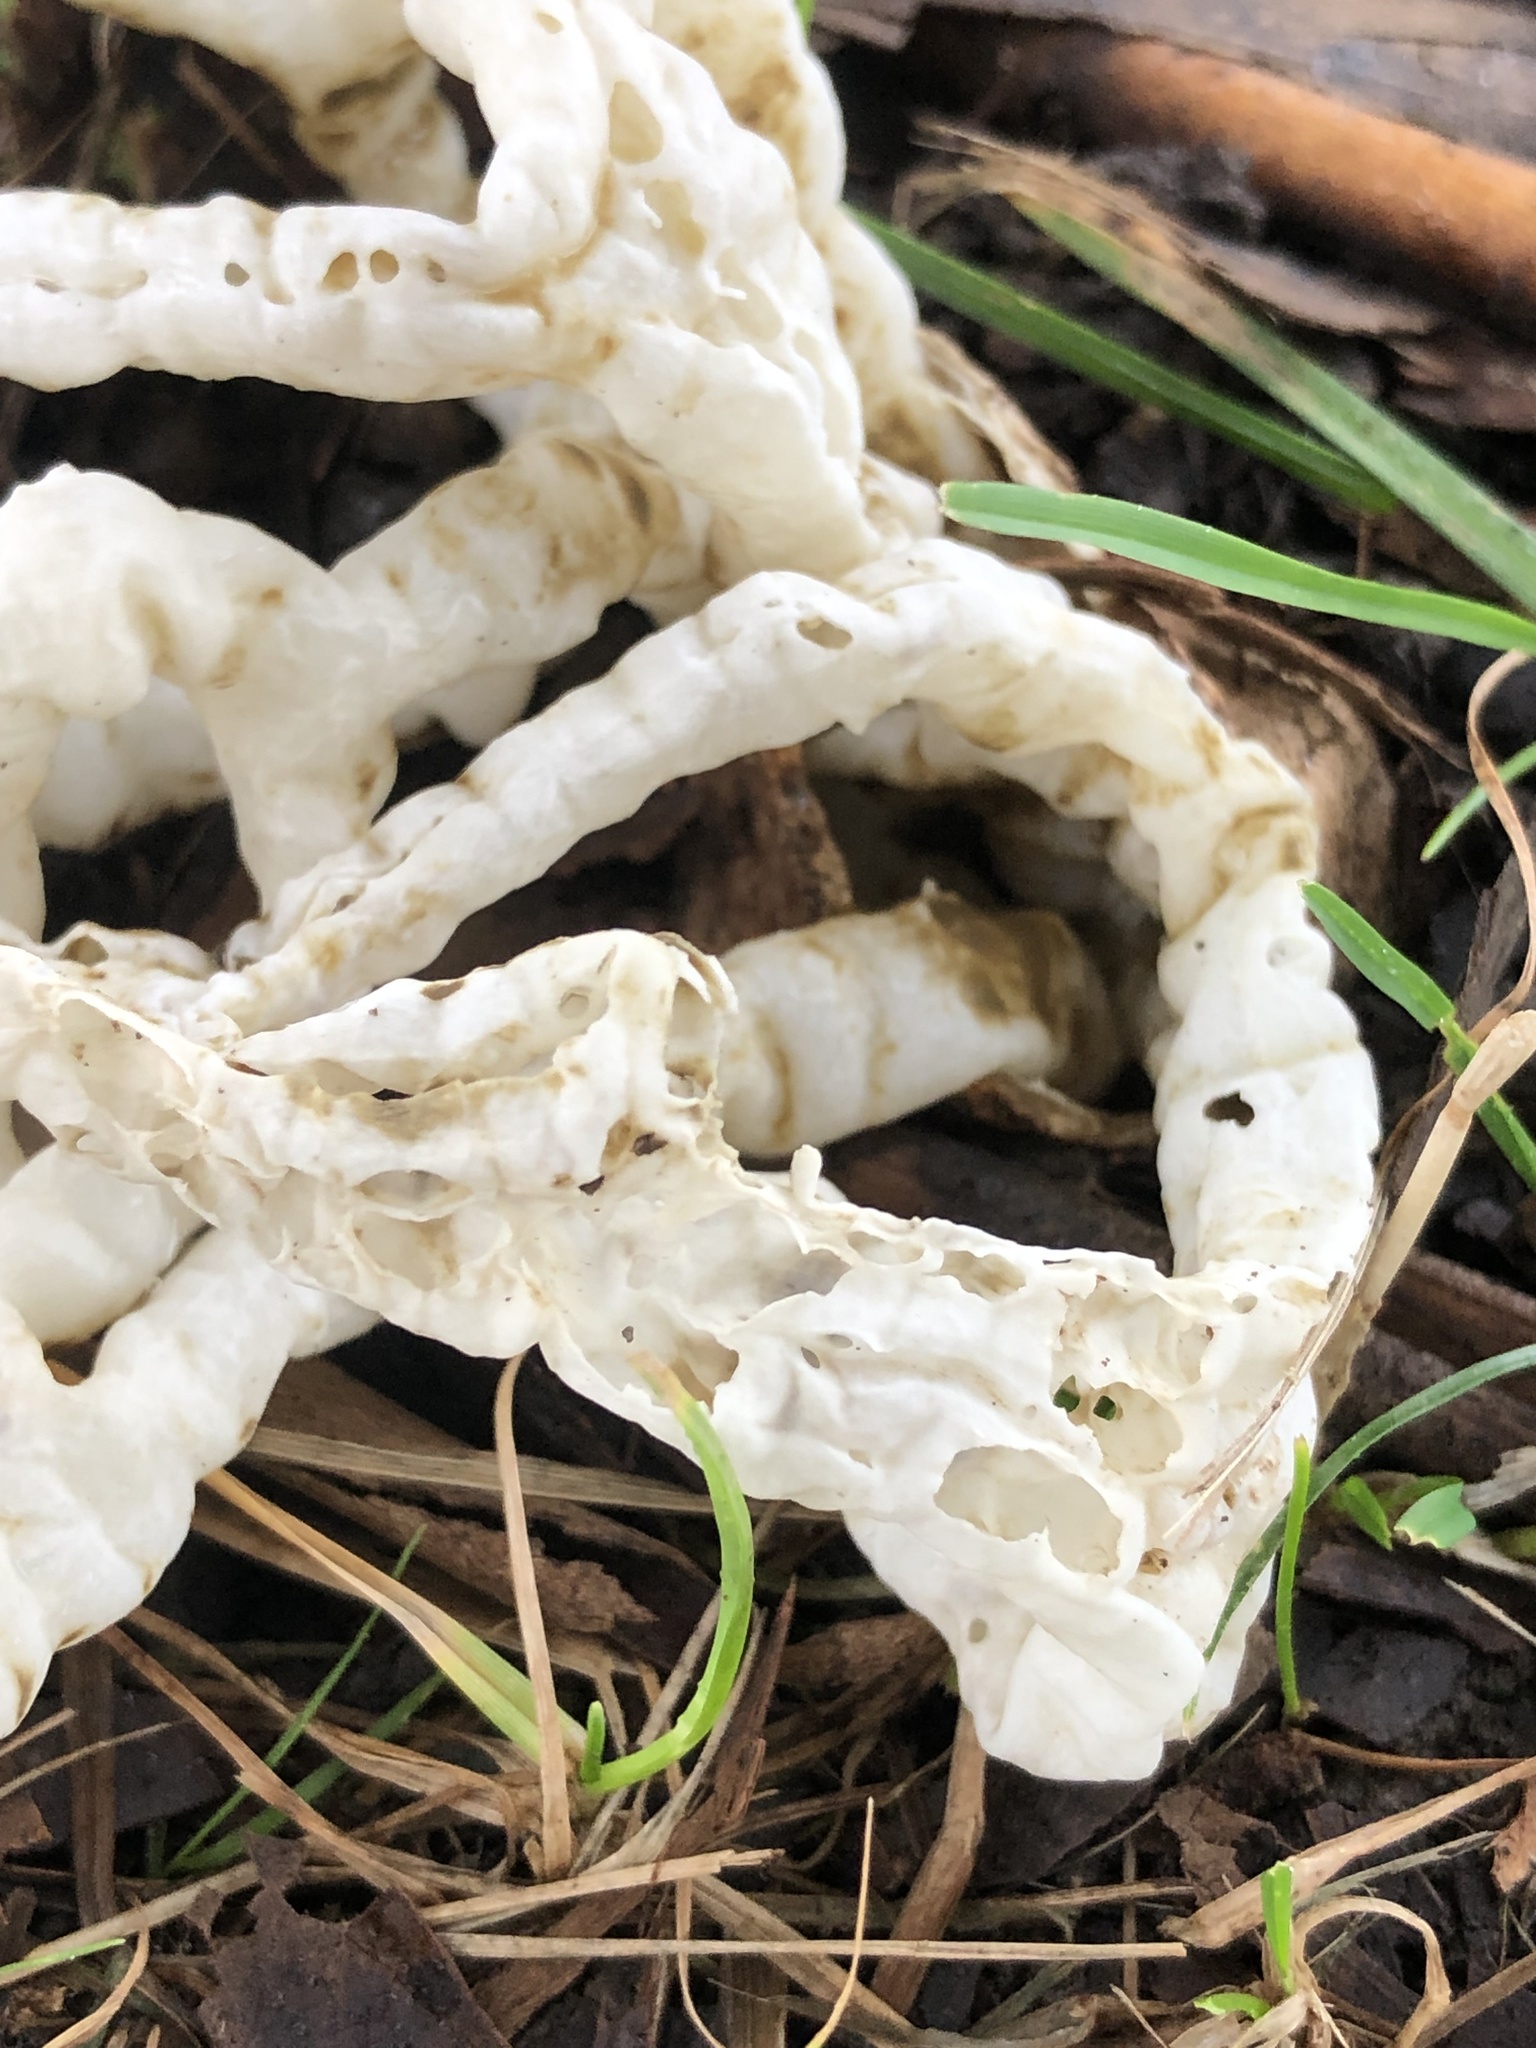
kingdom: Fungi
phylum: Basidiomycota
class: Agaricomycetes
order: Phallales
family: Phallaceae
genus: Ileodictyon
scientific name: Ileodictyon cibarium
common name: Basket fungus
